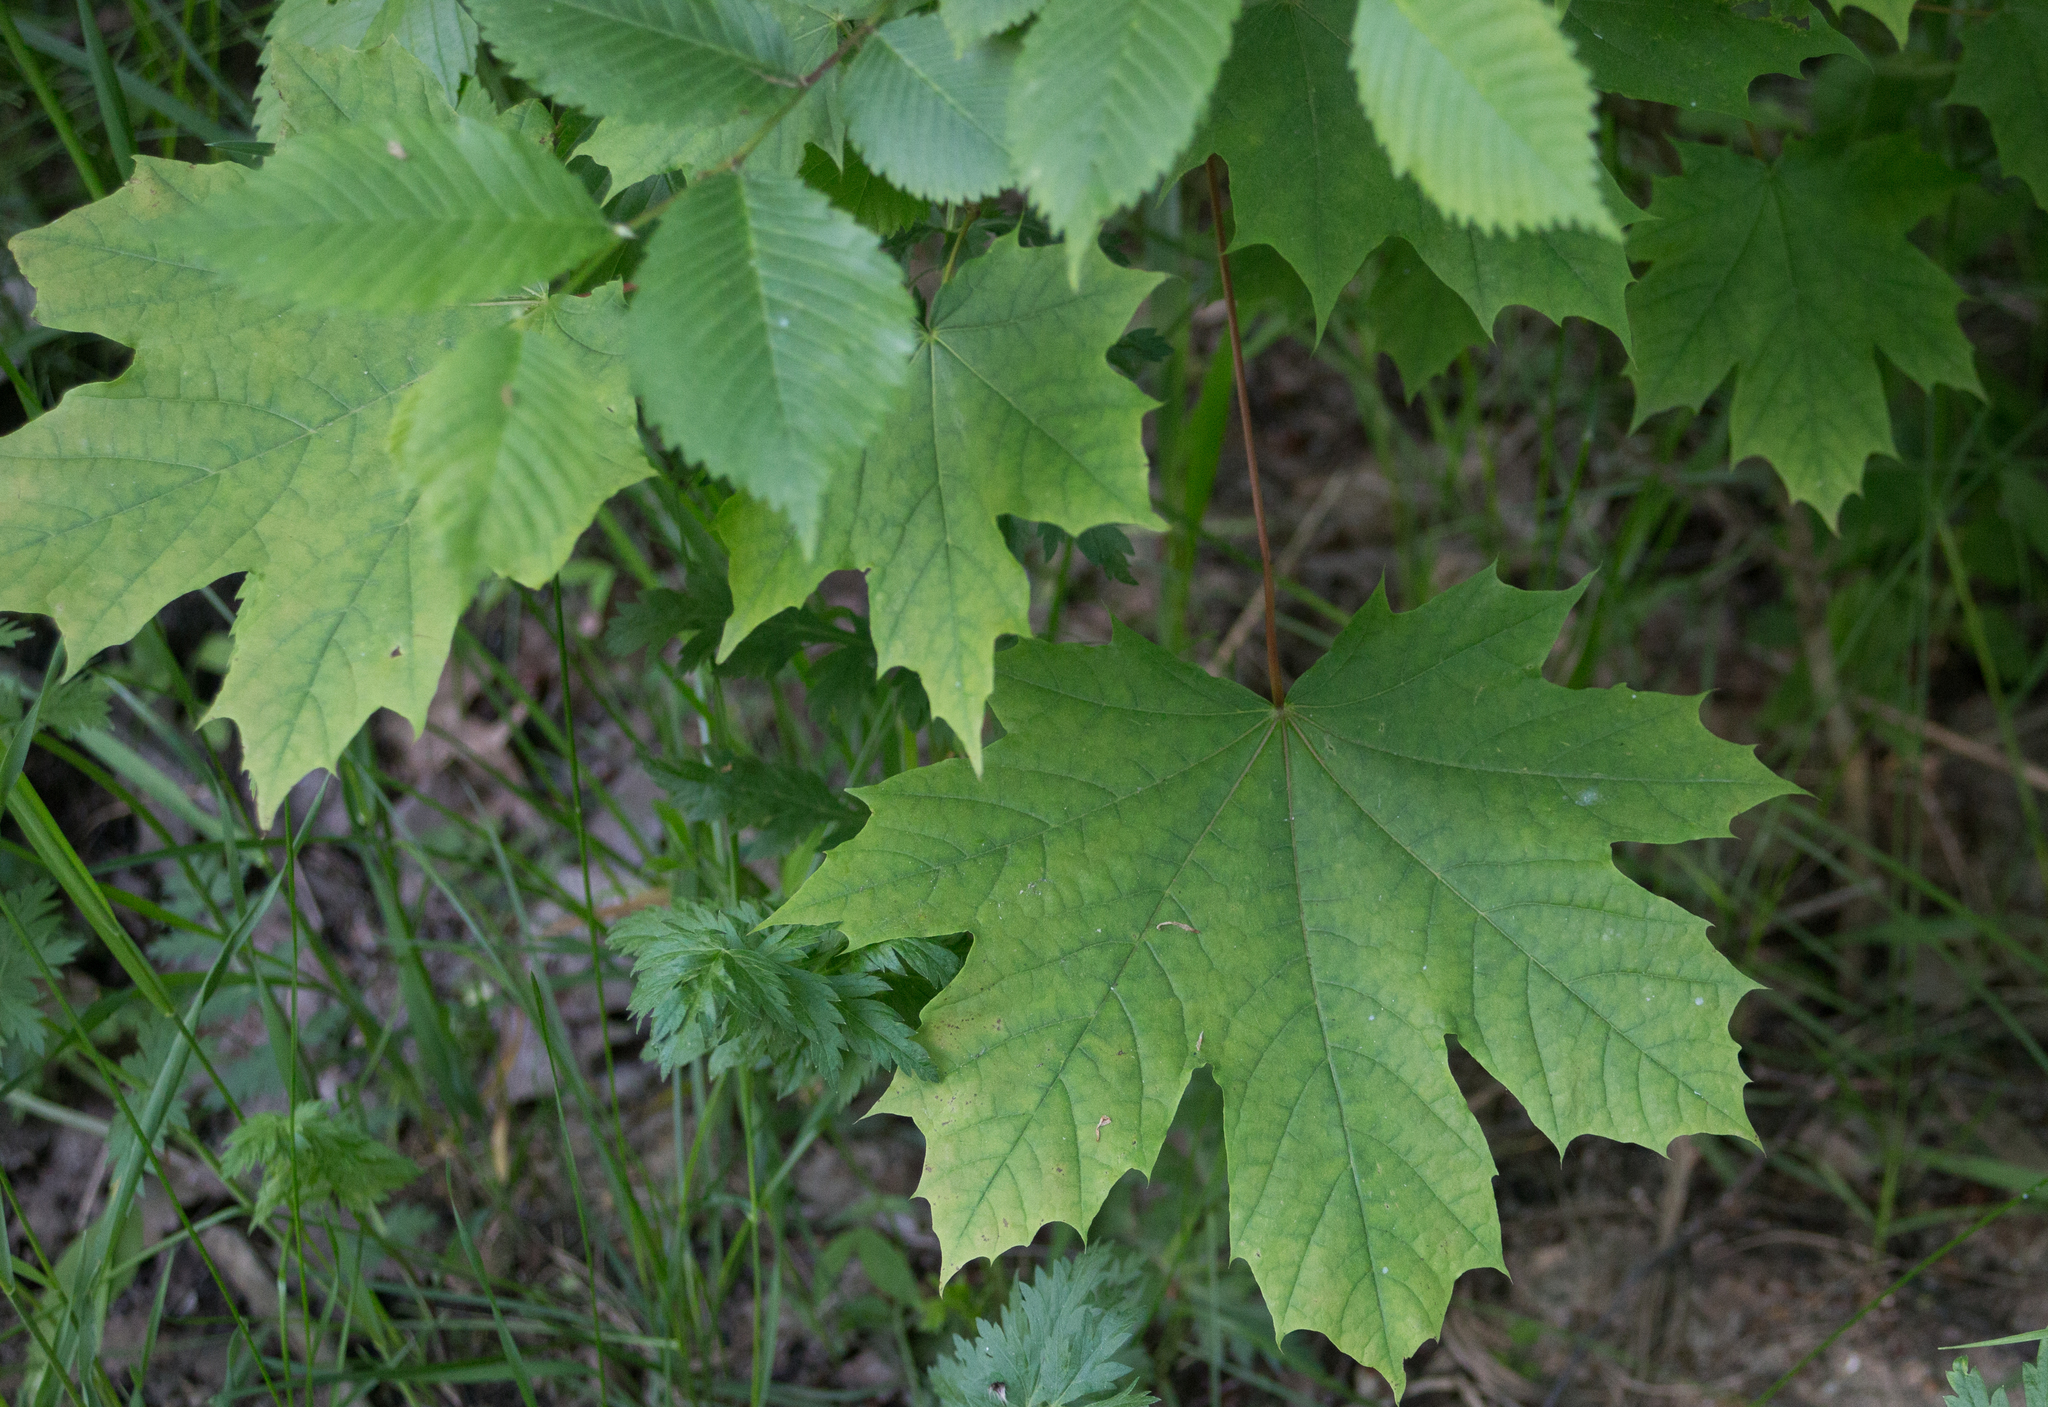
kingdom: Plantae
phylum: Tracheophyta
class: Magnoliopsida
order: Sapindales
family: Sapindaceae
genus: Acer
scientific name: Acer platanoides
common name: Norway maple
